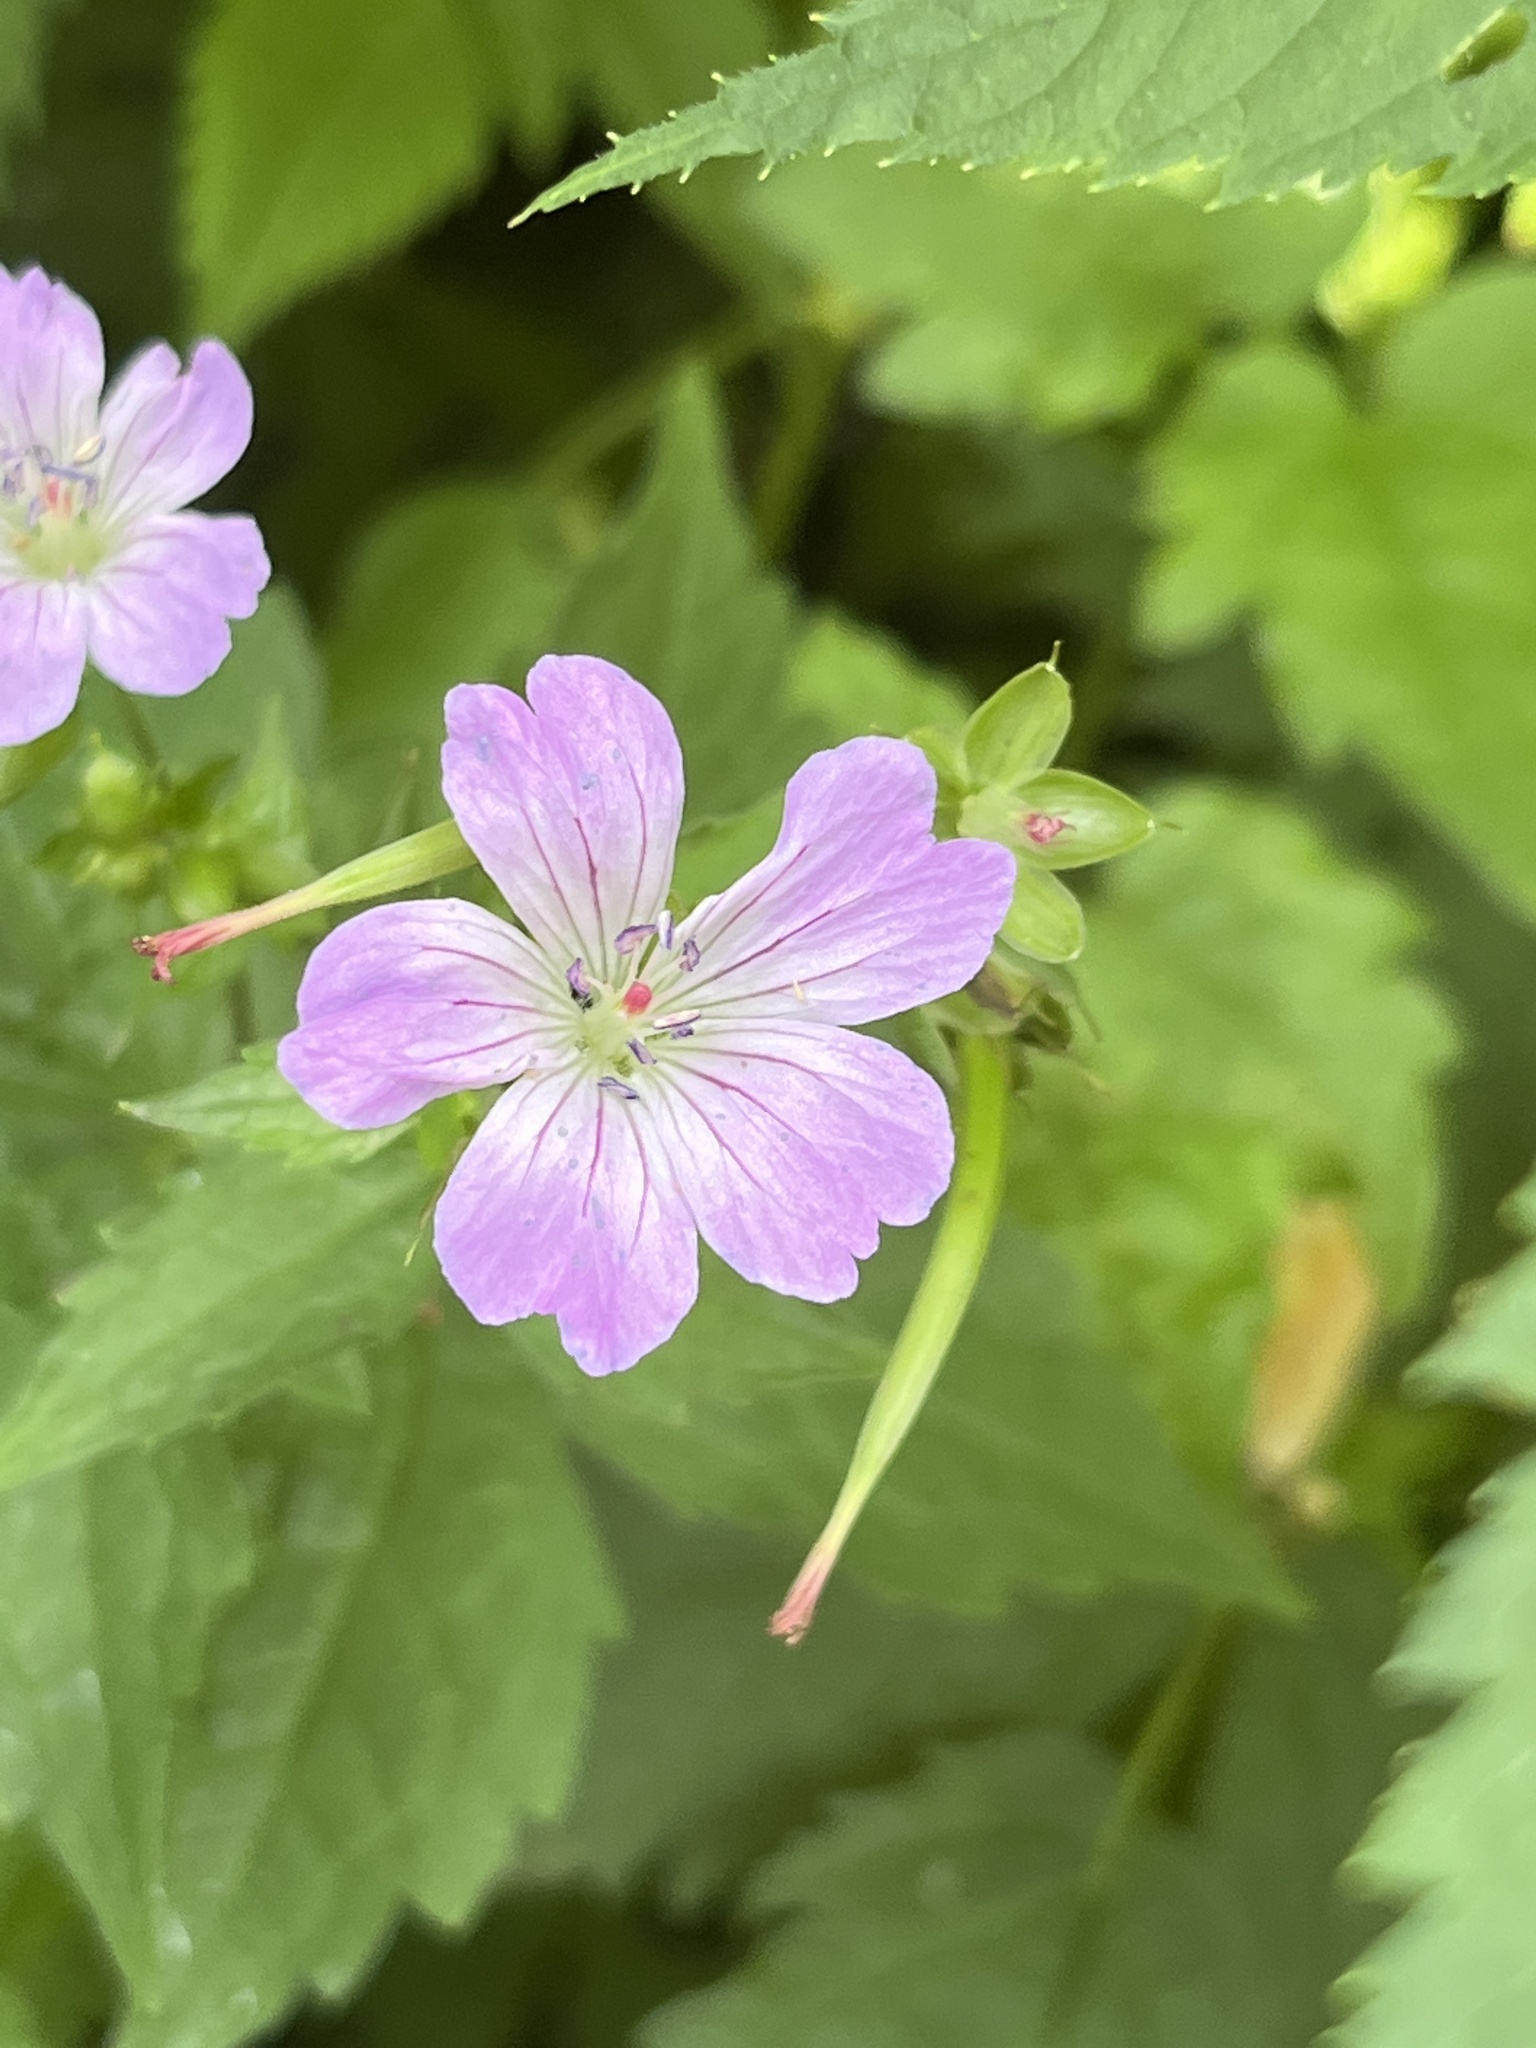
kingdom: Plantae
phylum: Tracheophyta
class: Magnoliopsida
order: Geraniales
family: Geraniaceae
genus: Geranium
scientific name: Geranium nodosum
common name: Knotted crane's-bill
